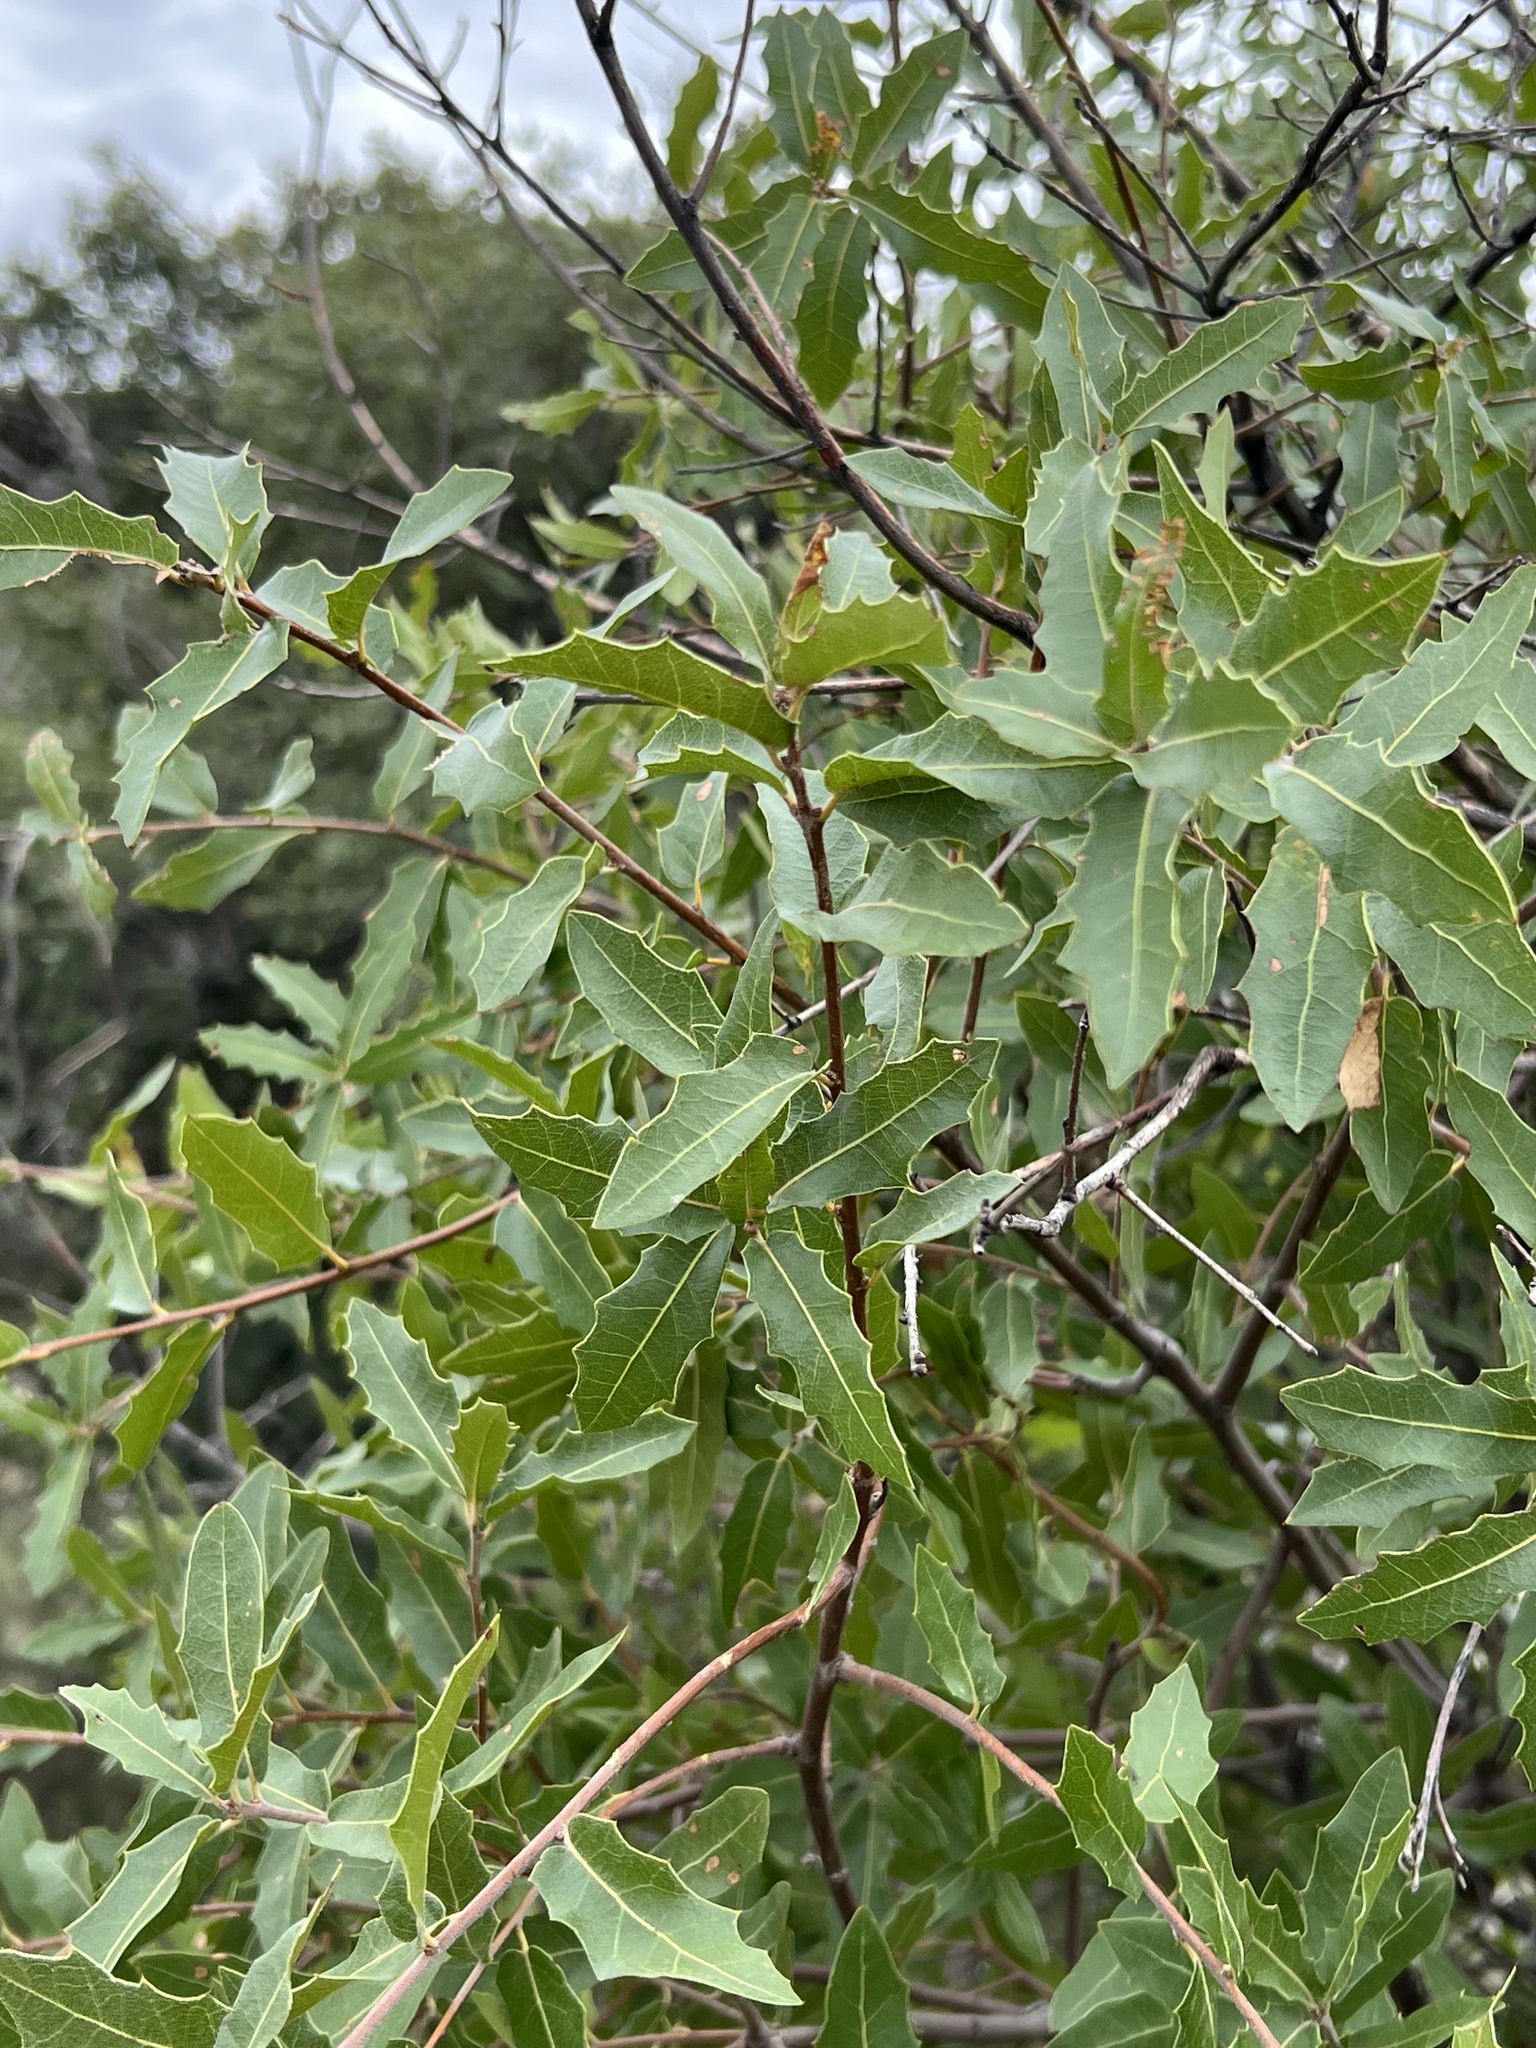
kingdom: Plantae
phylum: Tracheophyta
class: Magnoliopsida
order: Fagales
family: Fagaceae
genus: Quercus
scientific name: Quercus emoryi
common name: Emory oak
